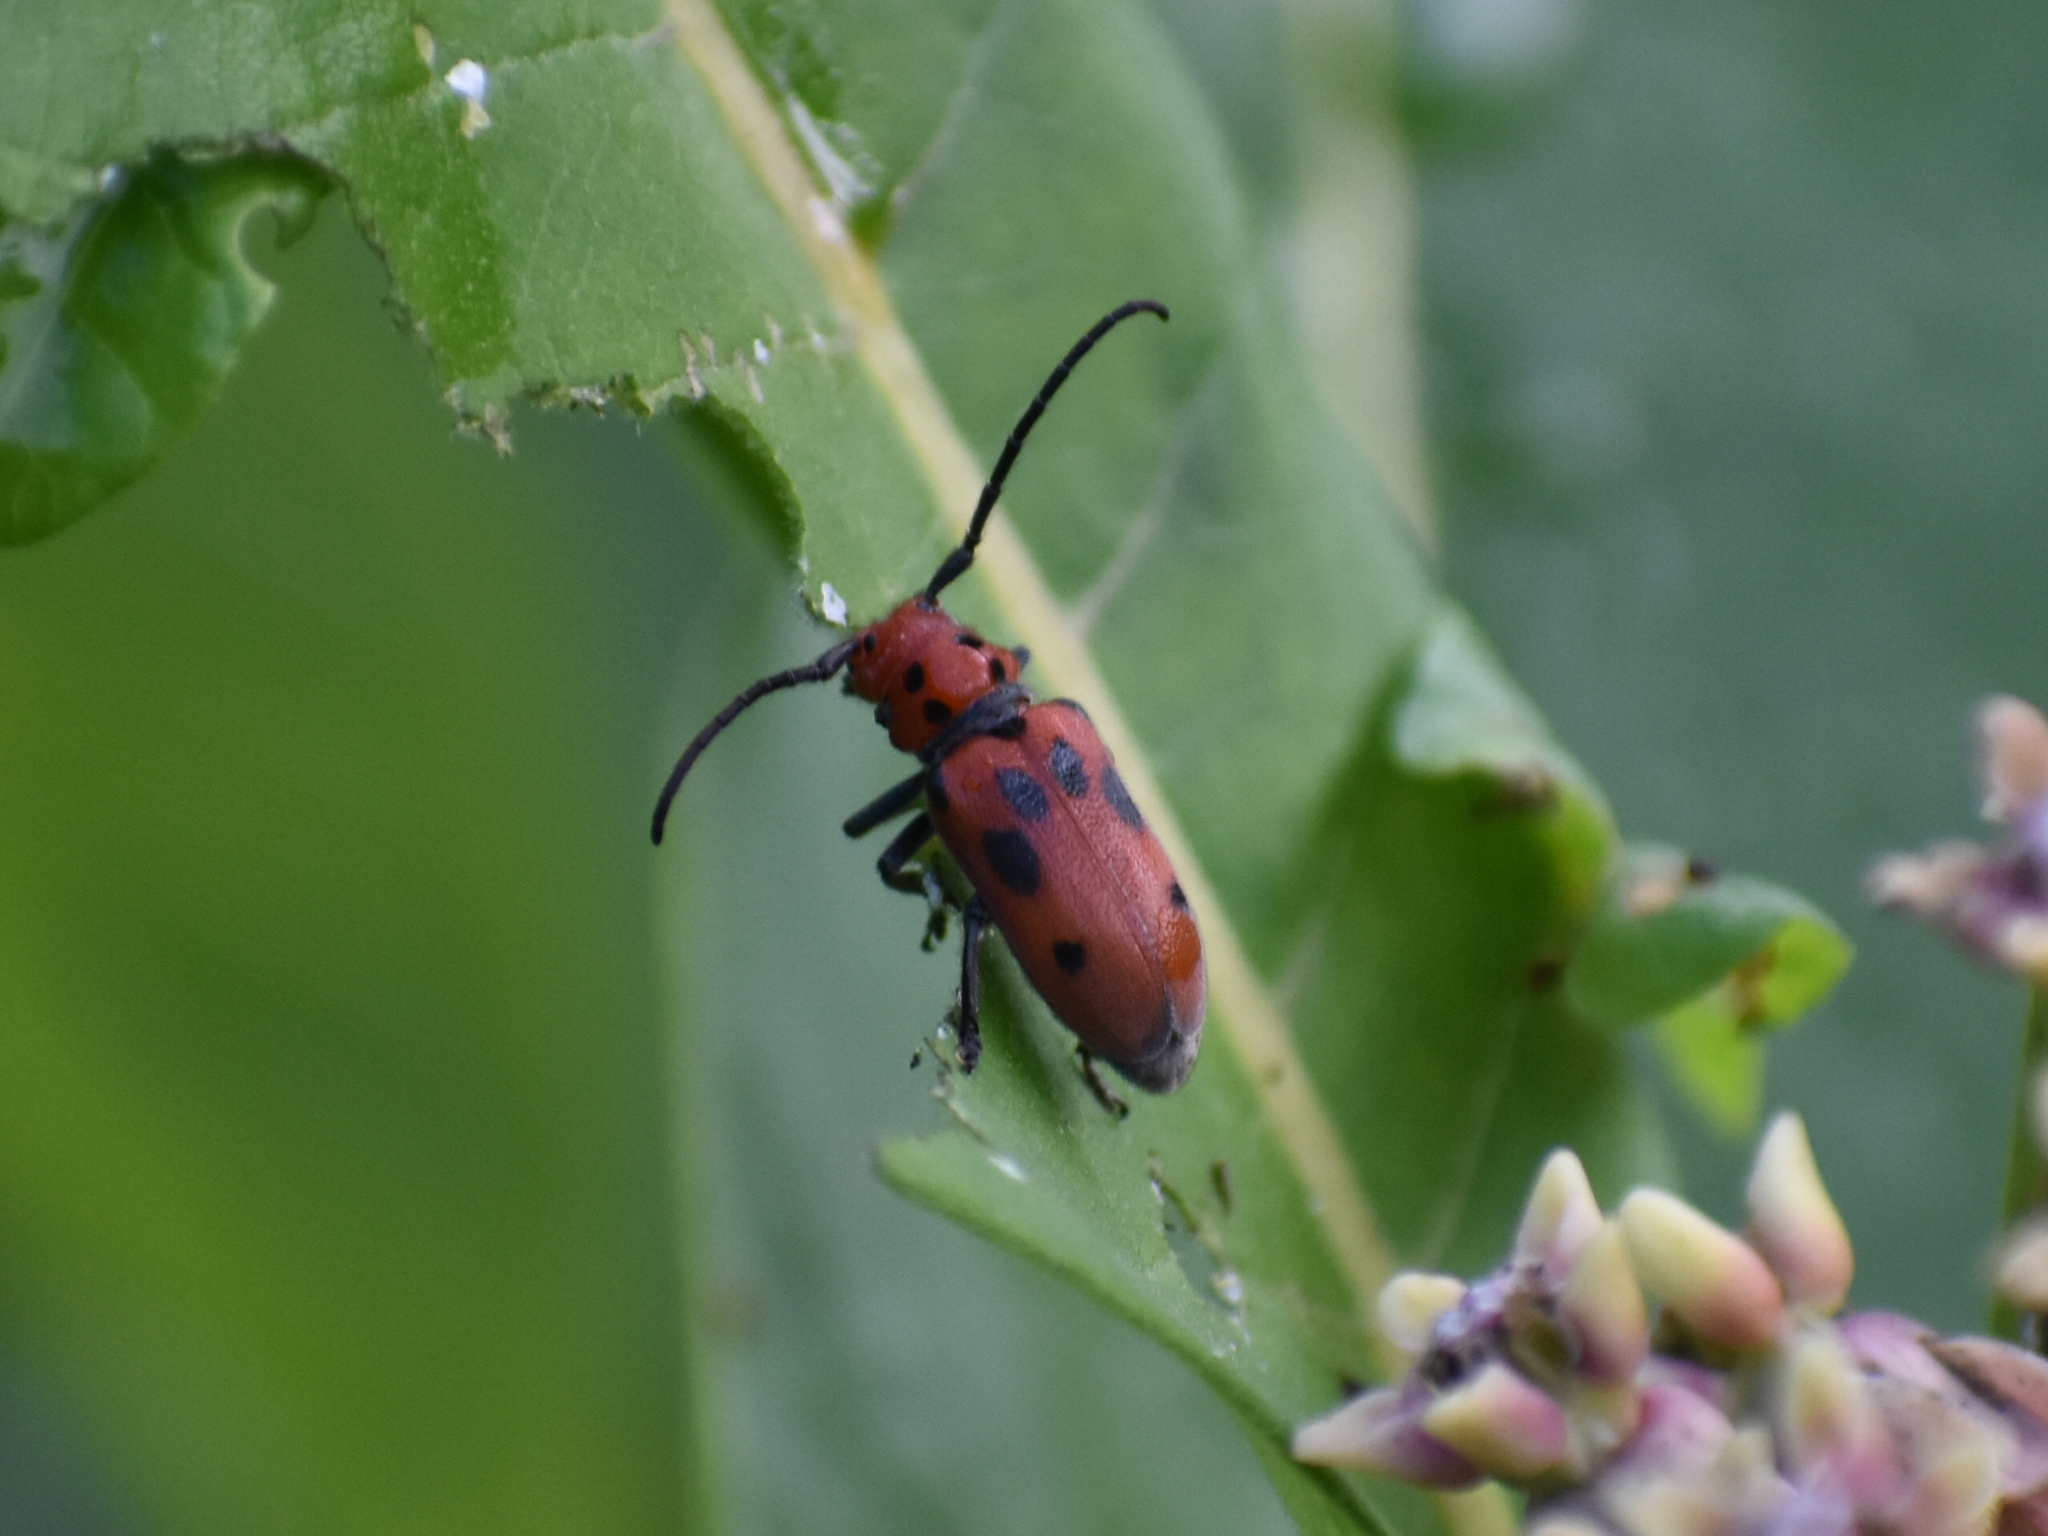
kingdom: Animalia
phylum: Arthropoda
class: Insecta
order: Coleoptera
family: Cerambycidae
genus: Tetraopes
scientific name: Tetraopes tetrophthalmus
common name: Red milkweed beetle
